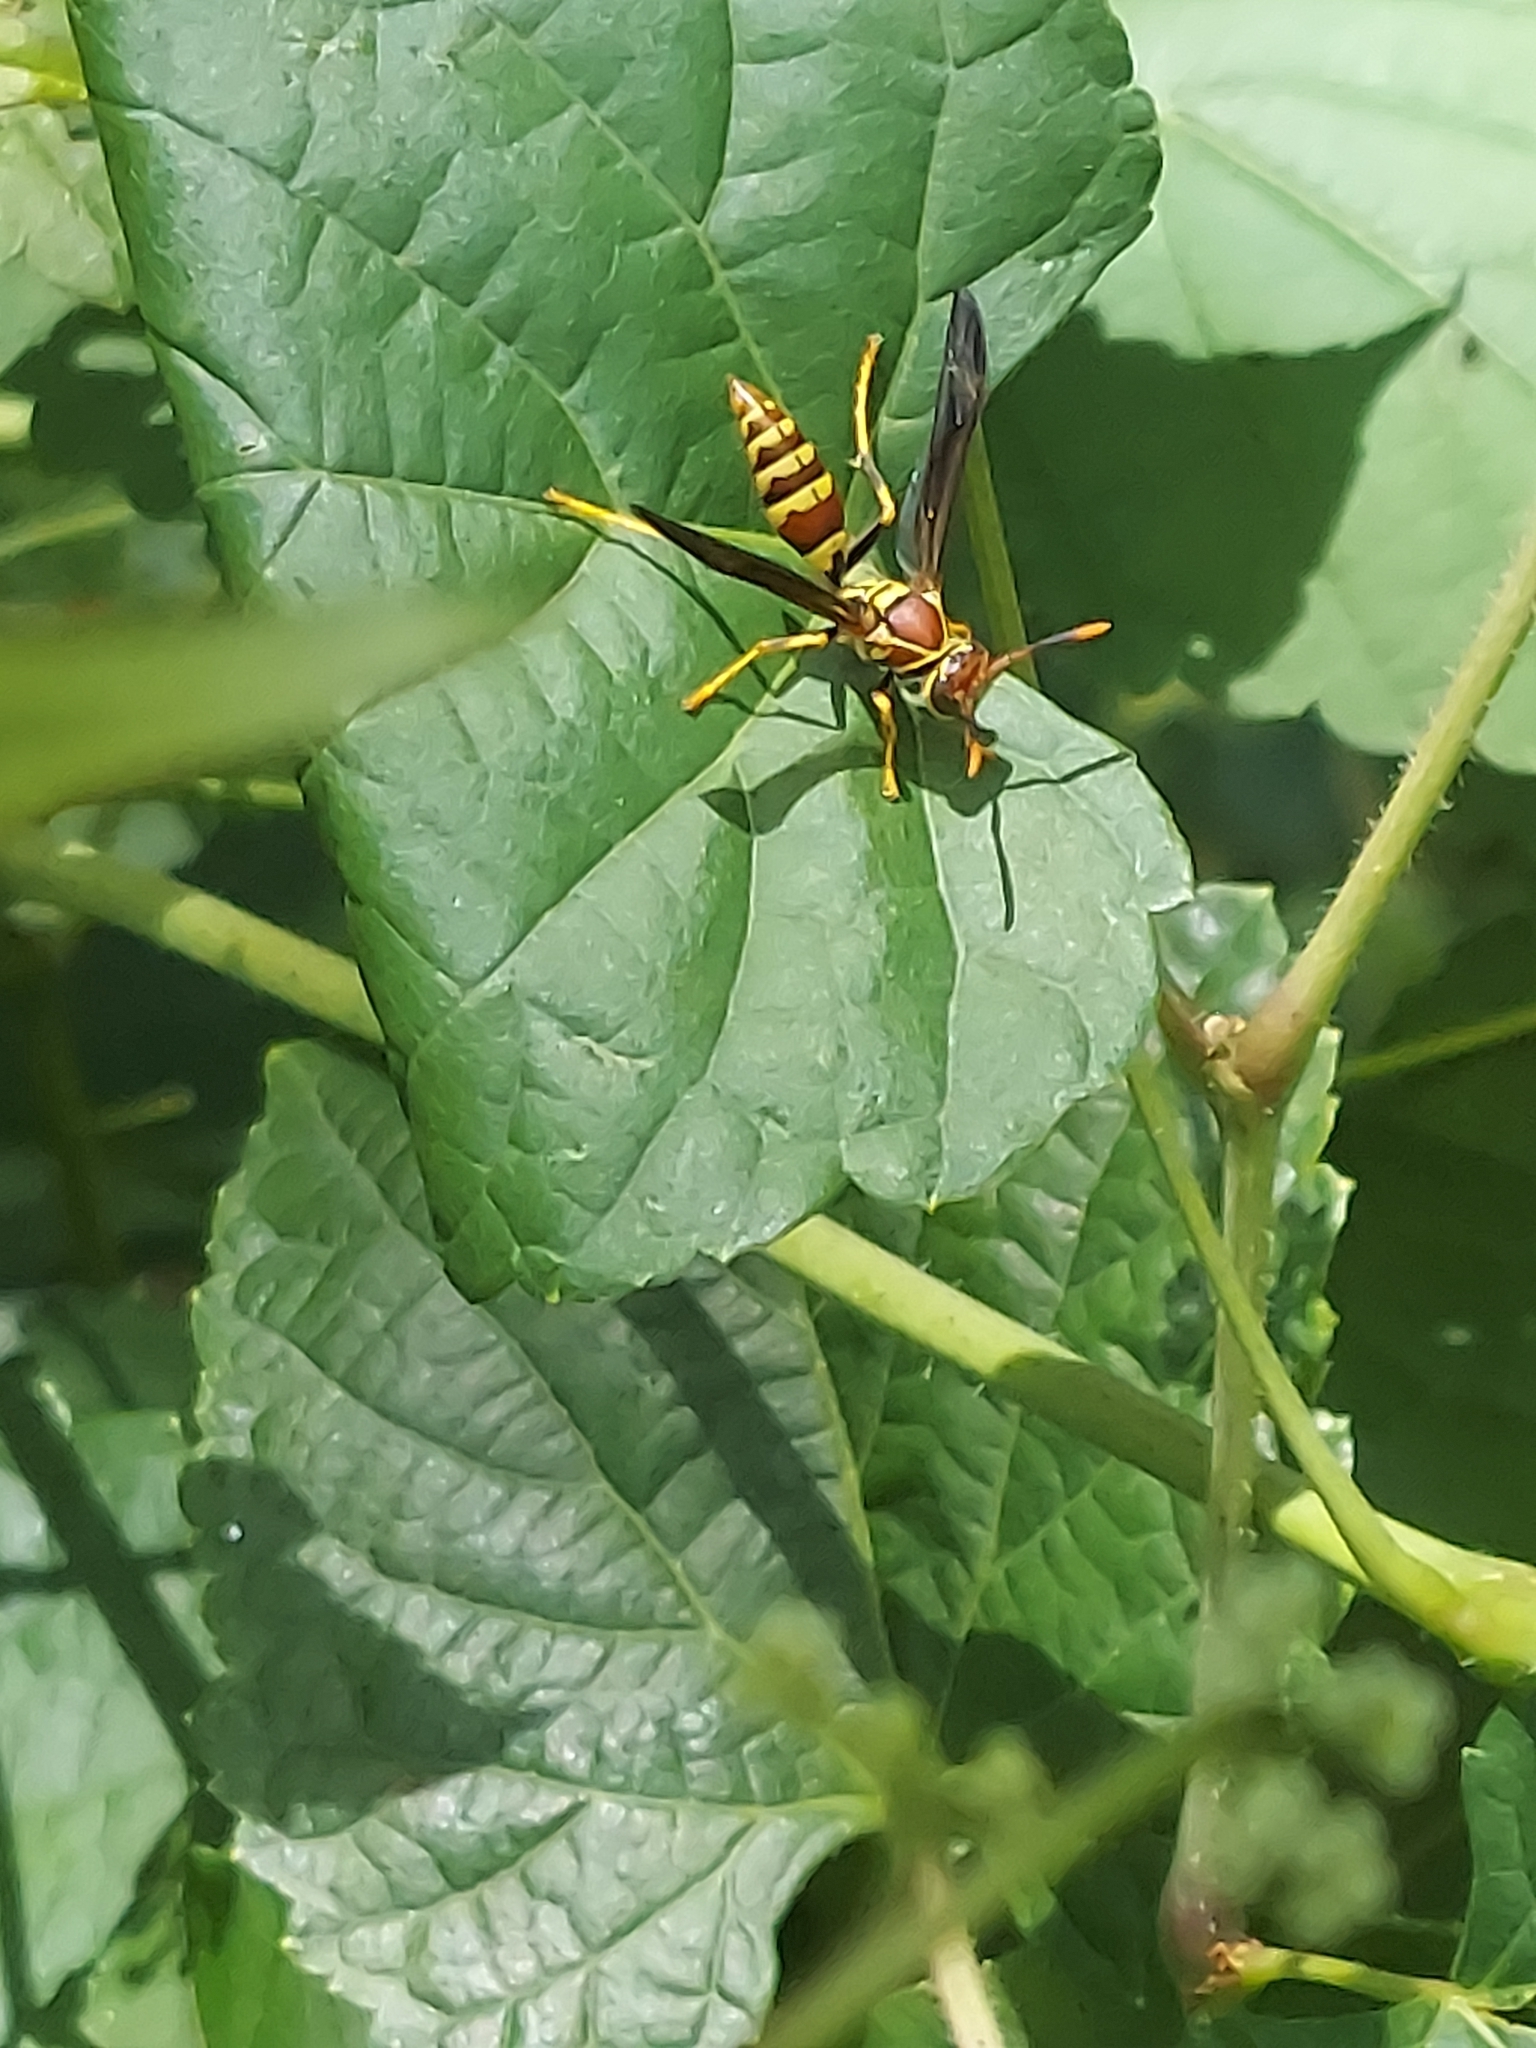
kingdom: Animalia
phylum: Arthropoda
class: Insecta
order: Hymenoptera
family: Eumenidae
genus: Polistes
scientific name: Polistes exclamans
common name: Paper wasp
